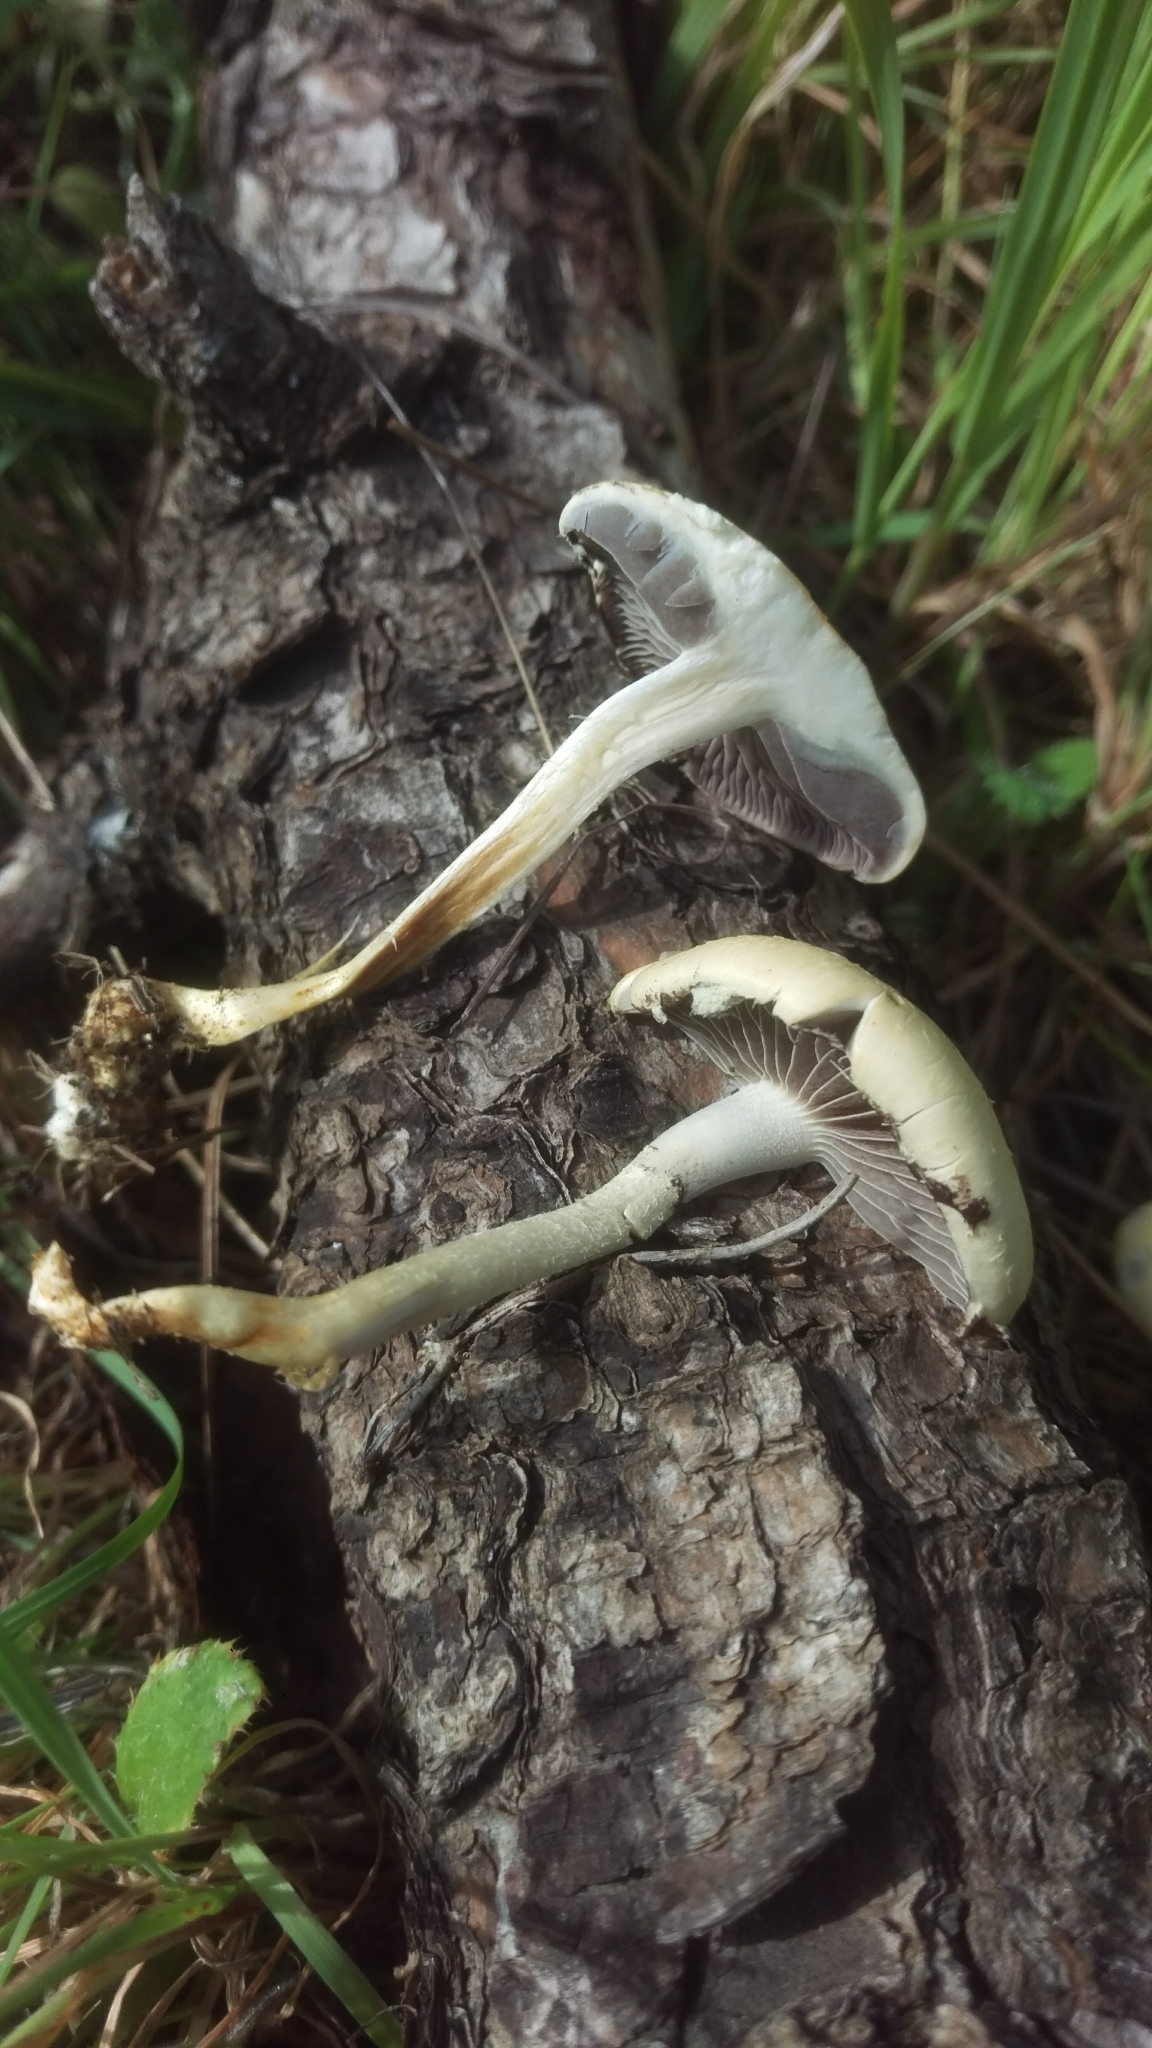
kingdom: Fungi
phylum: Basidiomycota
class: Agaricomycetes
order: Agaricales
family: Strophariaceae
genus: Leratiomyces
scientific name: Leratiomyces percevalii
